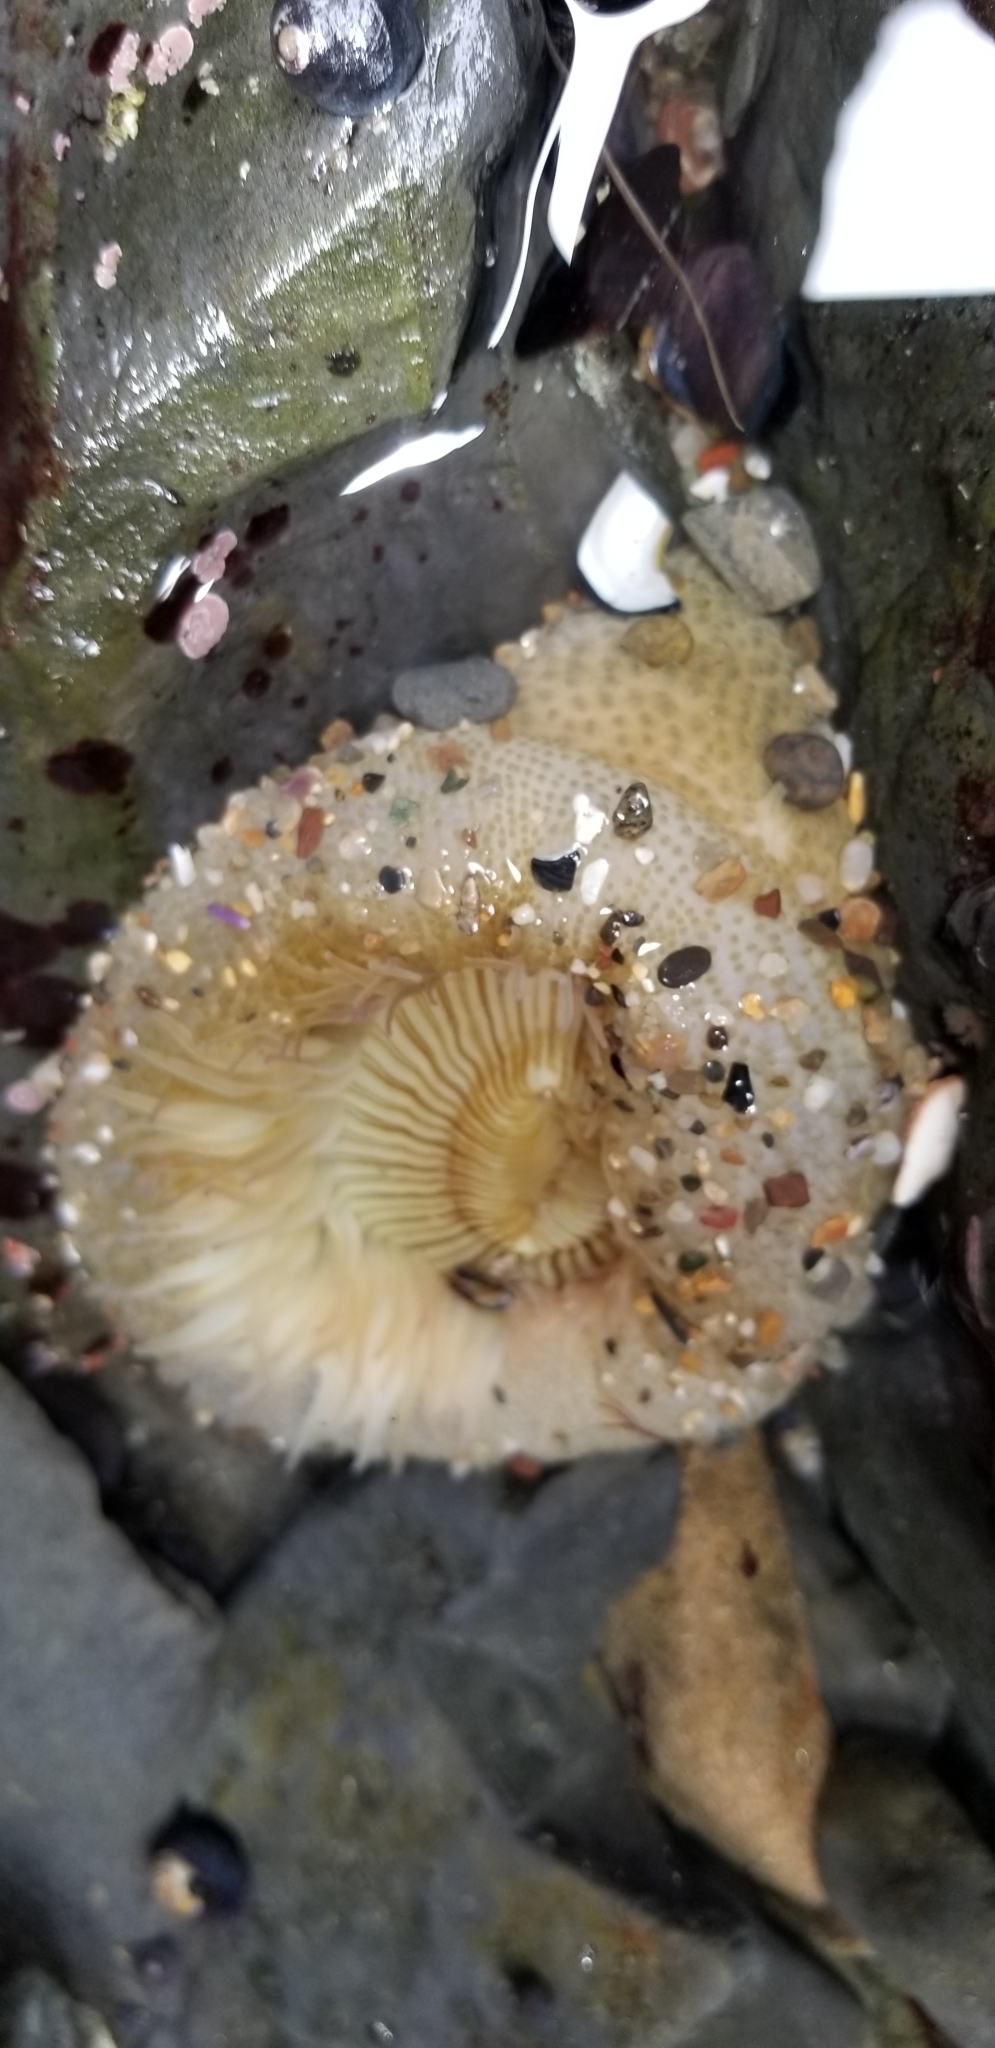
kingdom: Animalia
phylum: Cnidaria
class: Anthozoa
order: Actiniaria
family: Actiniidae
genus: Anthopleura
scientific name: Anthopleura sola
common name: Sun anemone
